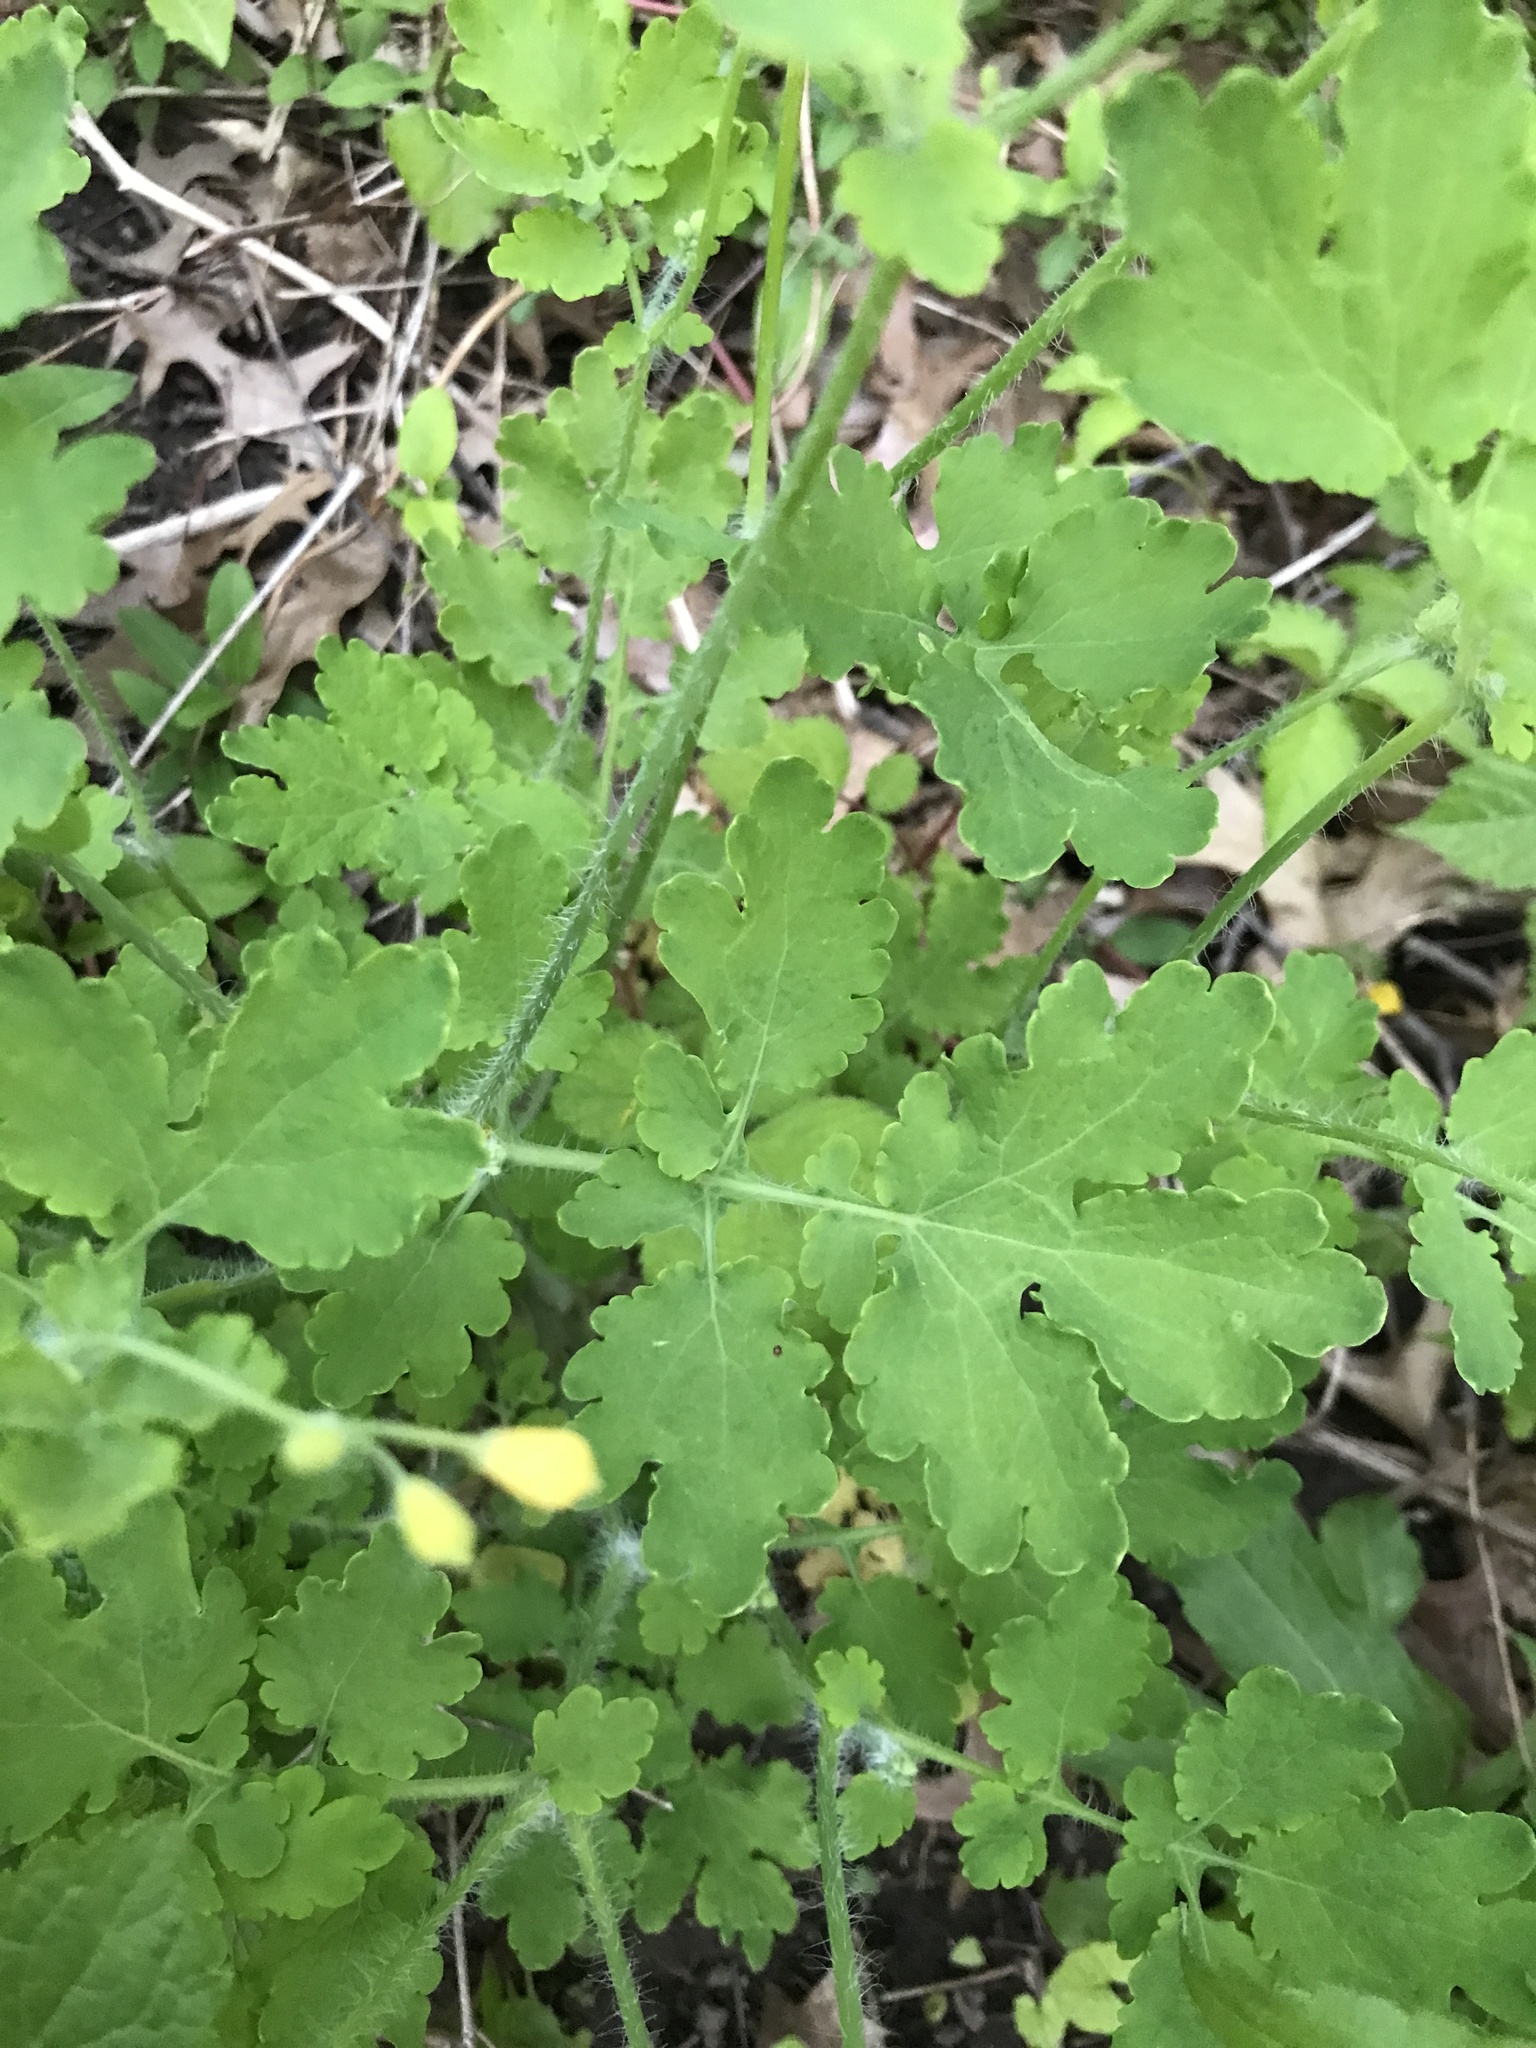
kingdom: Plantae
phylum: Tracheophyta
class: Magnoliopsida
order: Ranunculales
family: Papaveraceae
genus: Chelidonium
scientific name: Chelidonium majus
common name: Greater celandine
